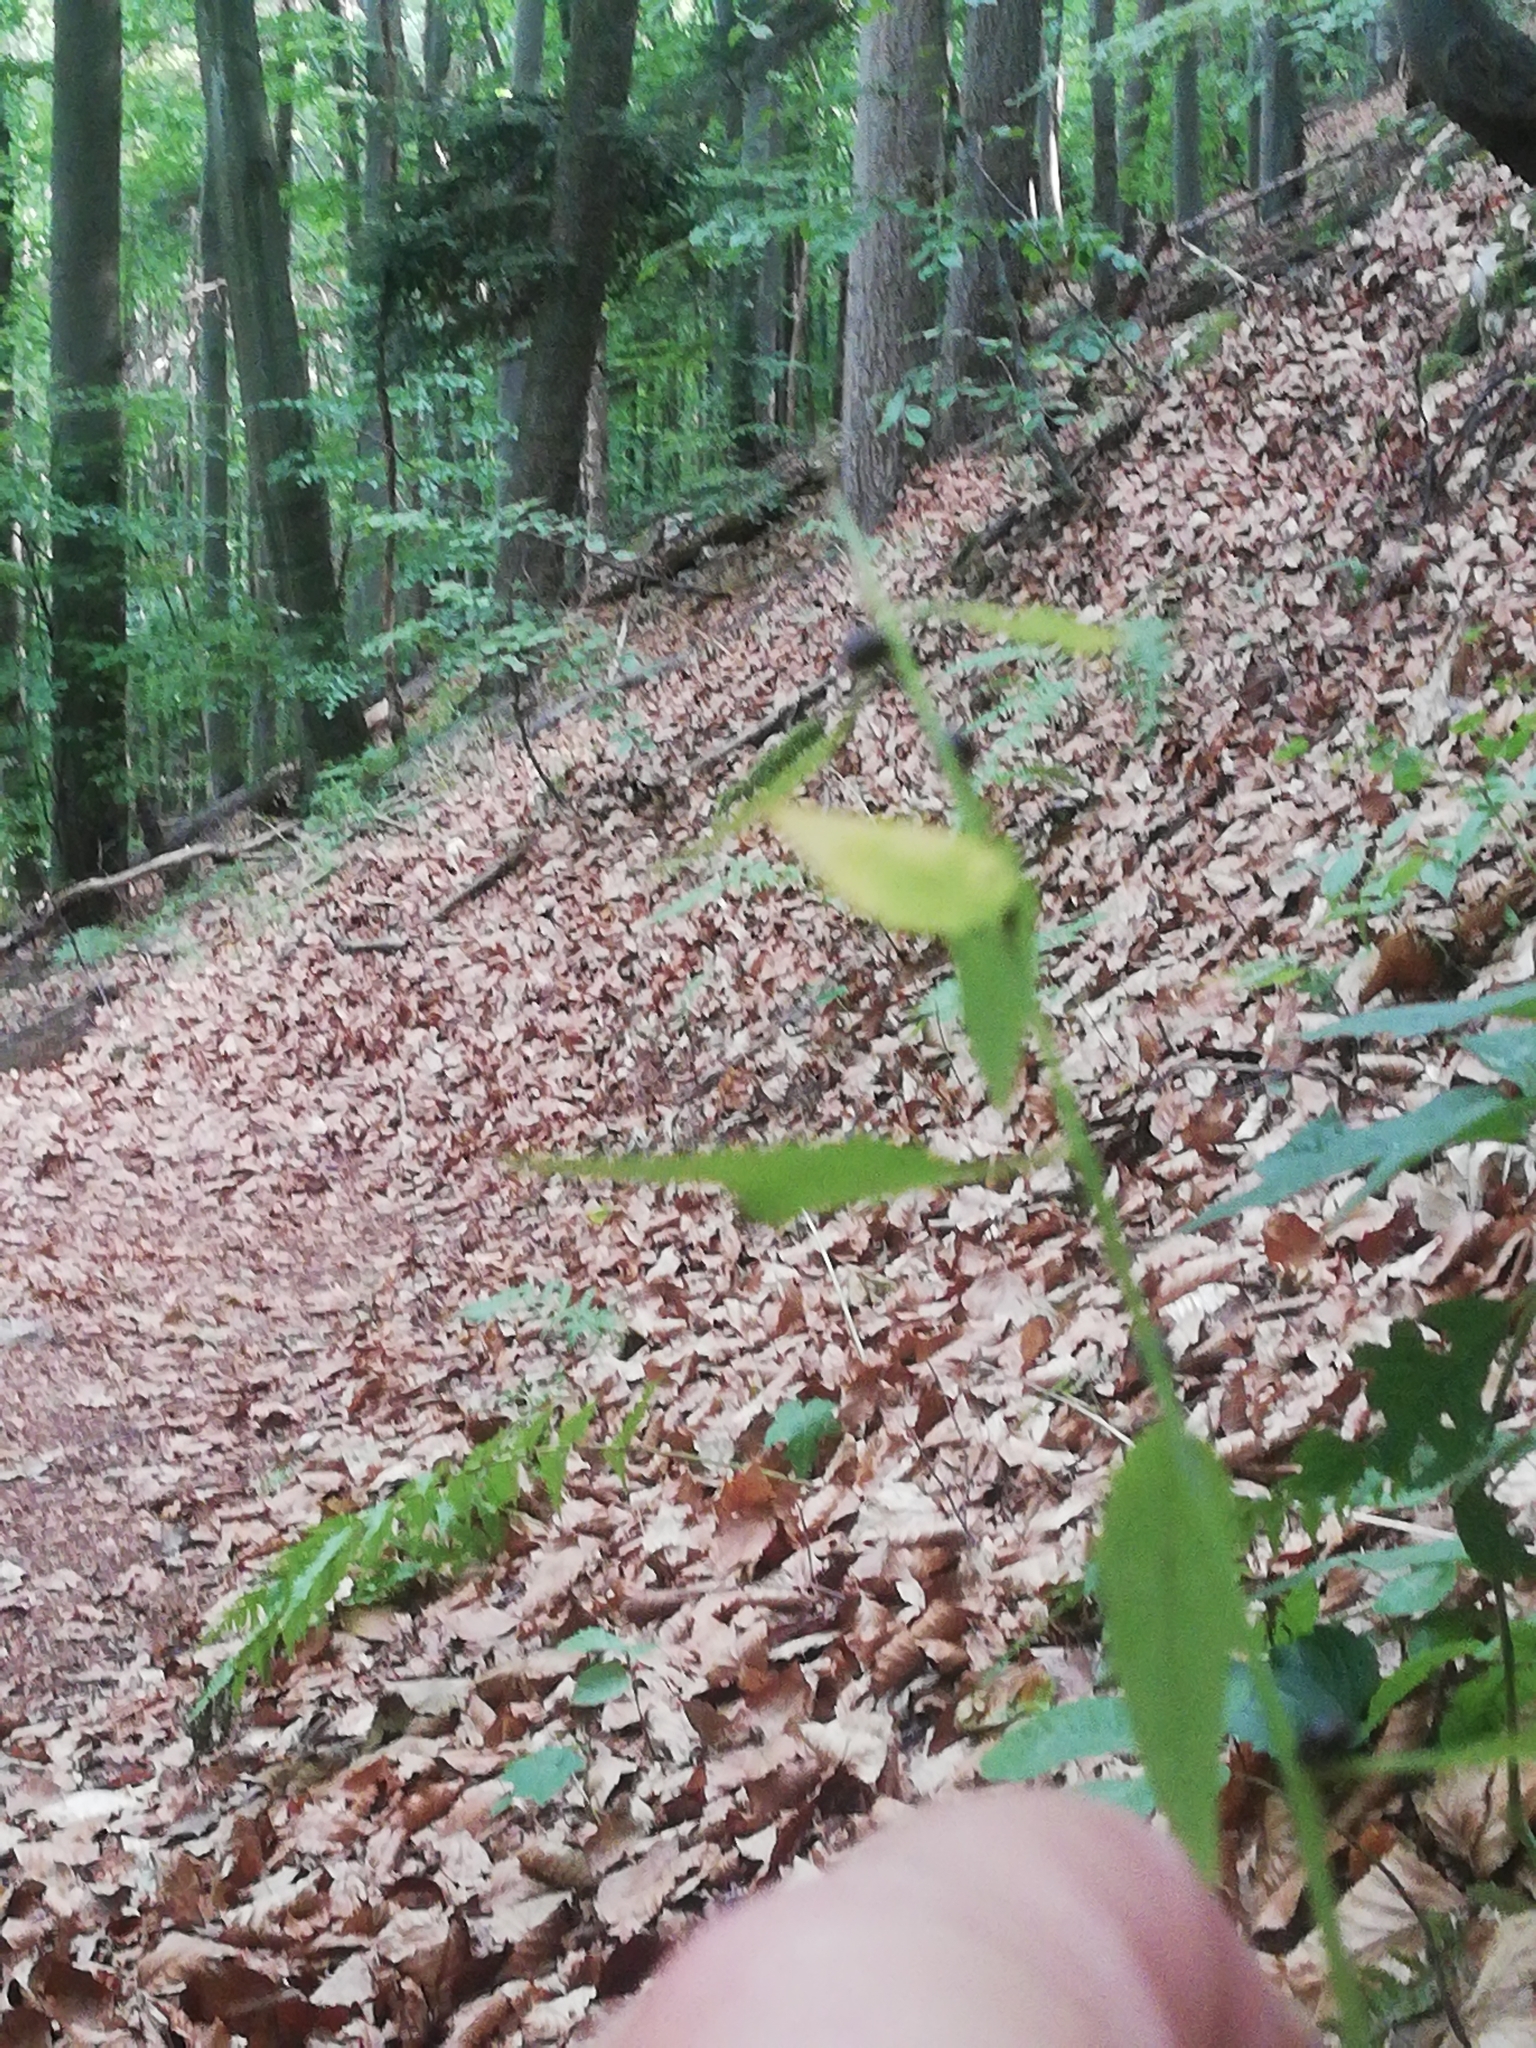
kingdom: Plantae
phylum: Tracheophyta
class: Magnoliopsida
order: Brassicales
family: Brassicaceae
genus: Cardamine
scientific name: Cardamine bulbifera
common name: Coralroot bittercress
